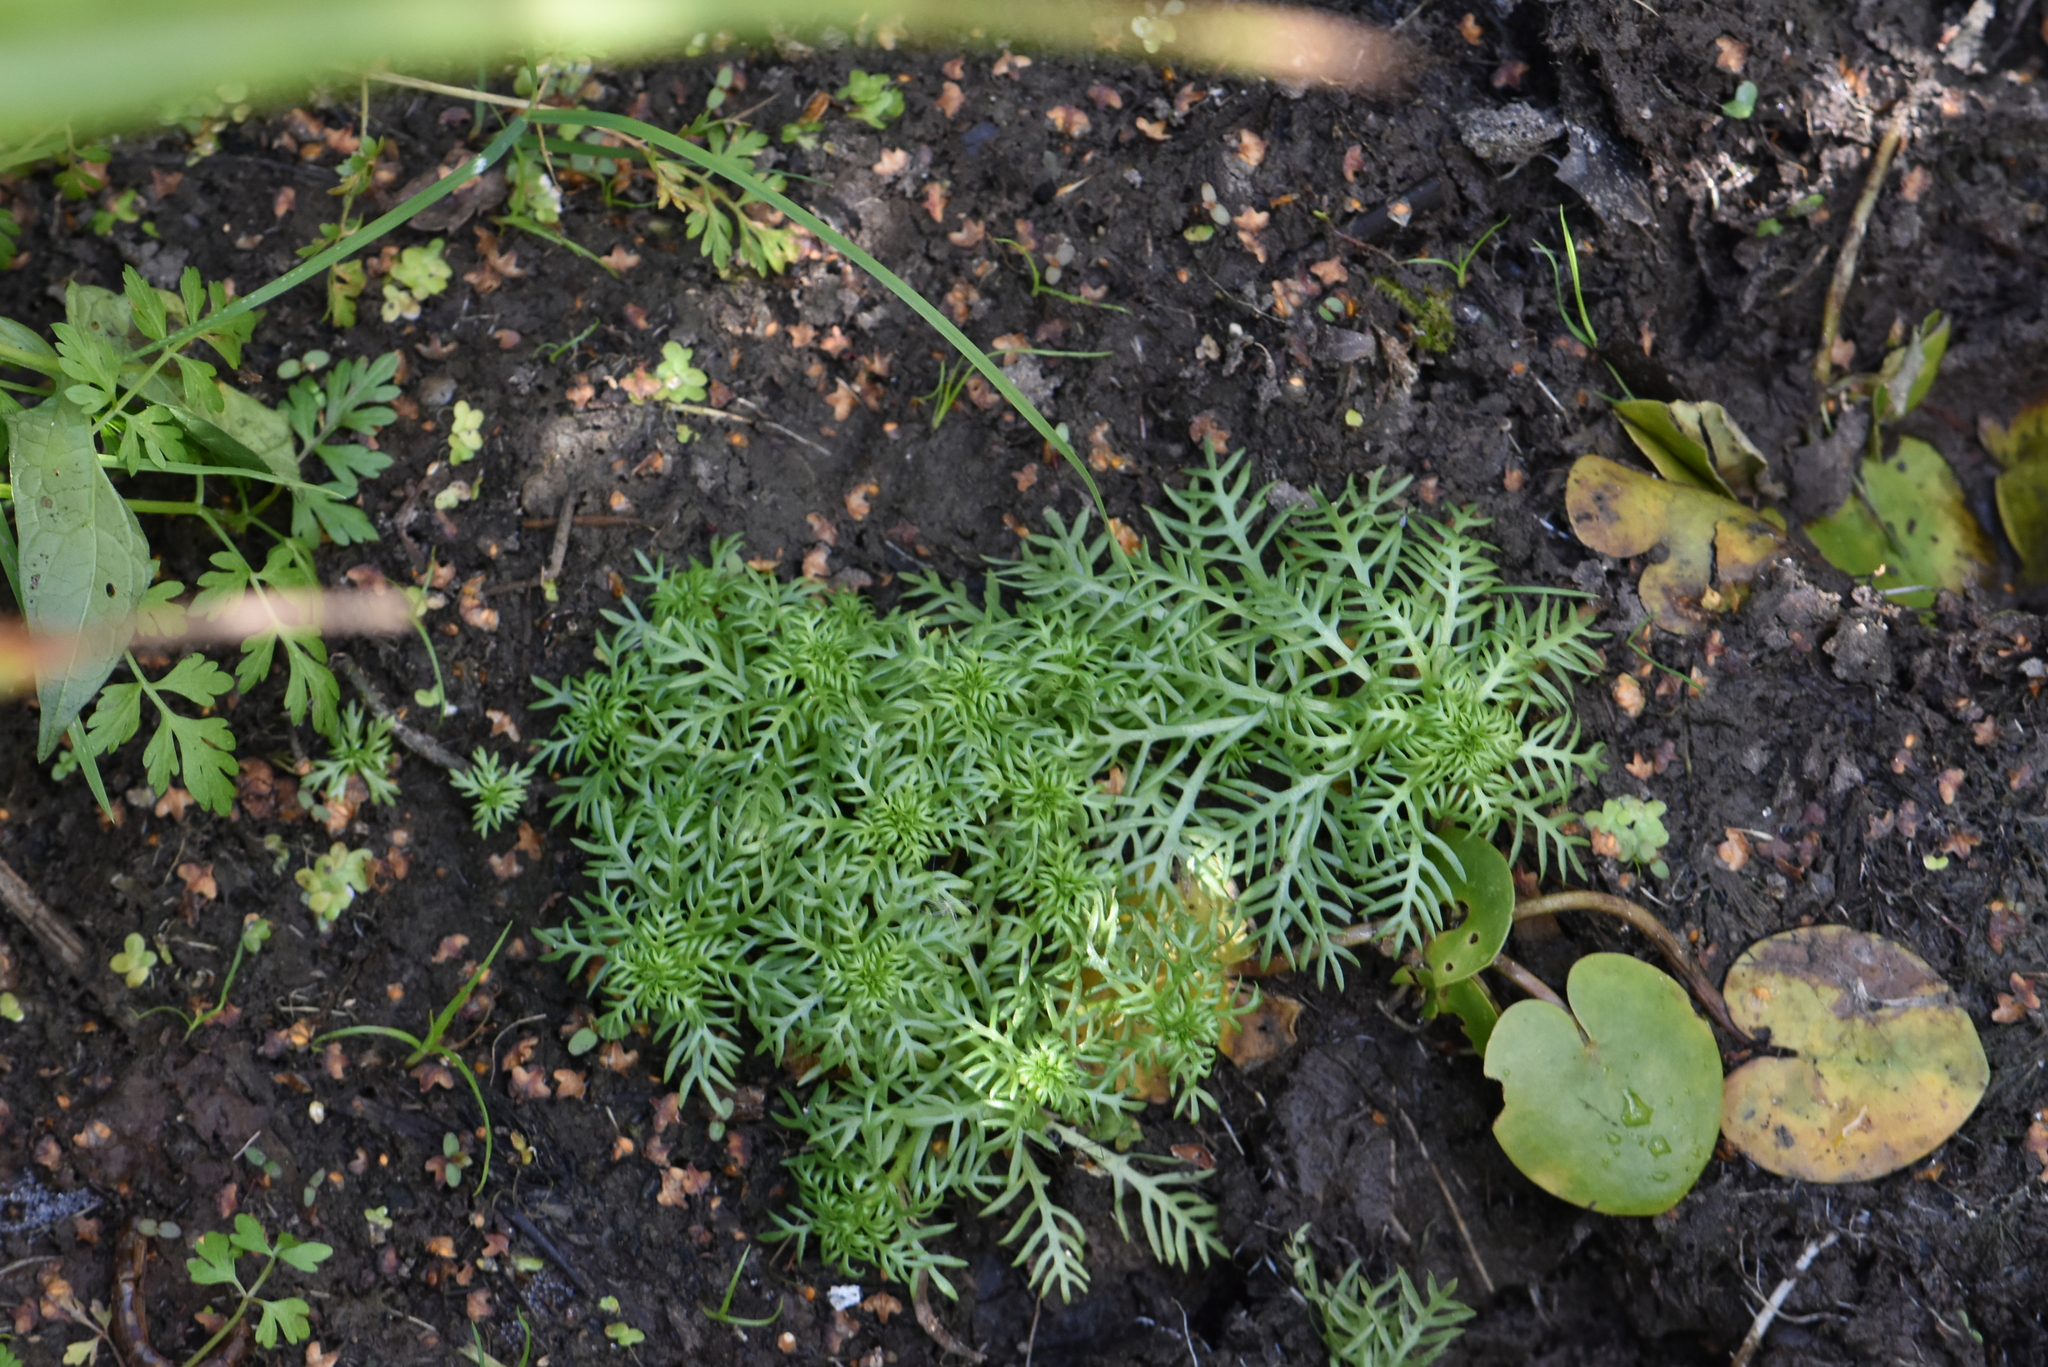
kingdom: Plantae
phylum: Tracheophyta
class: Magnoliopsida
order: Ericales
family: Primulaceae
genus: Hottonia
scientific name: Hottonia palustris
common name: Water-violet
